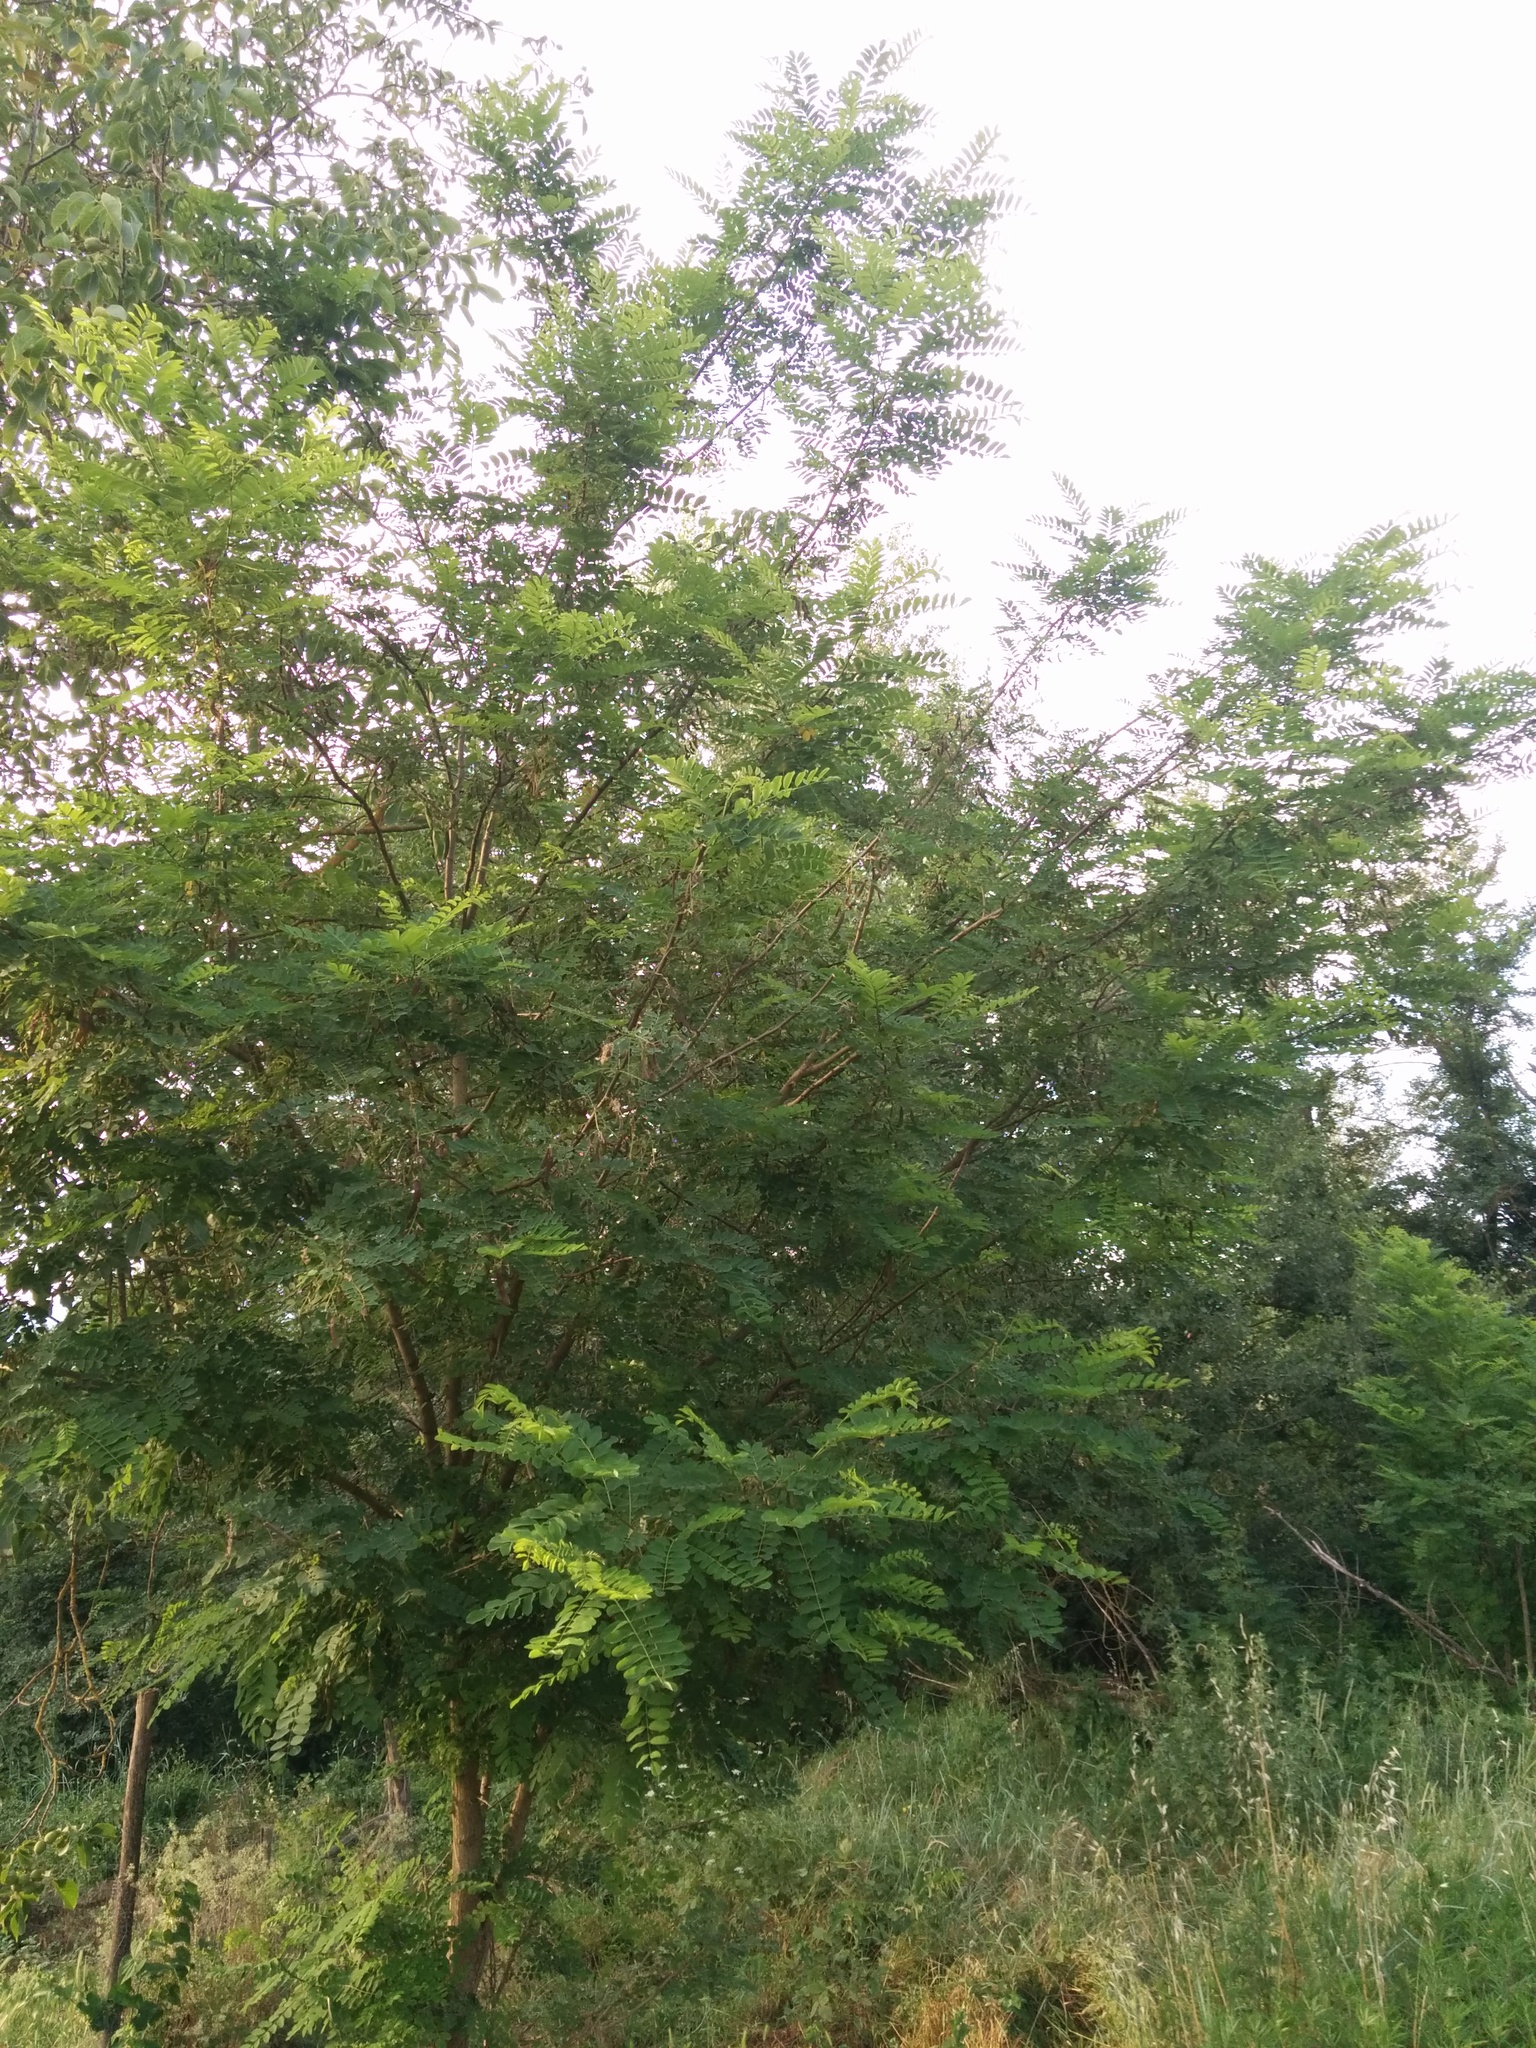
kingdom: Plantae
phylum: Tracheophyta
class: Magnoliopsida
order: Fabales
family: Fabaceae
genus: Robinia
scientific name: Robinia pseudoacacia
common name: Black locust
